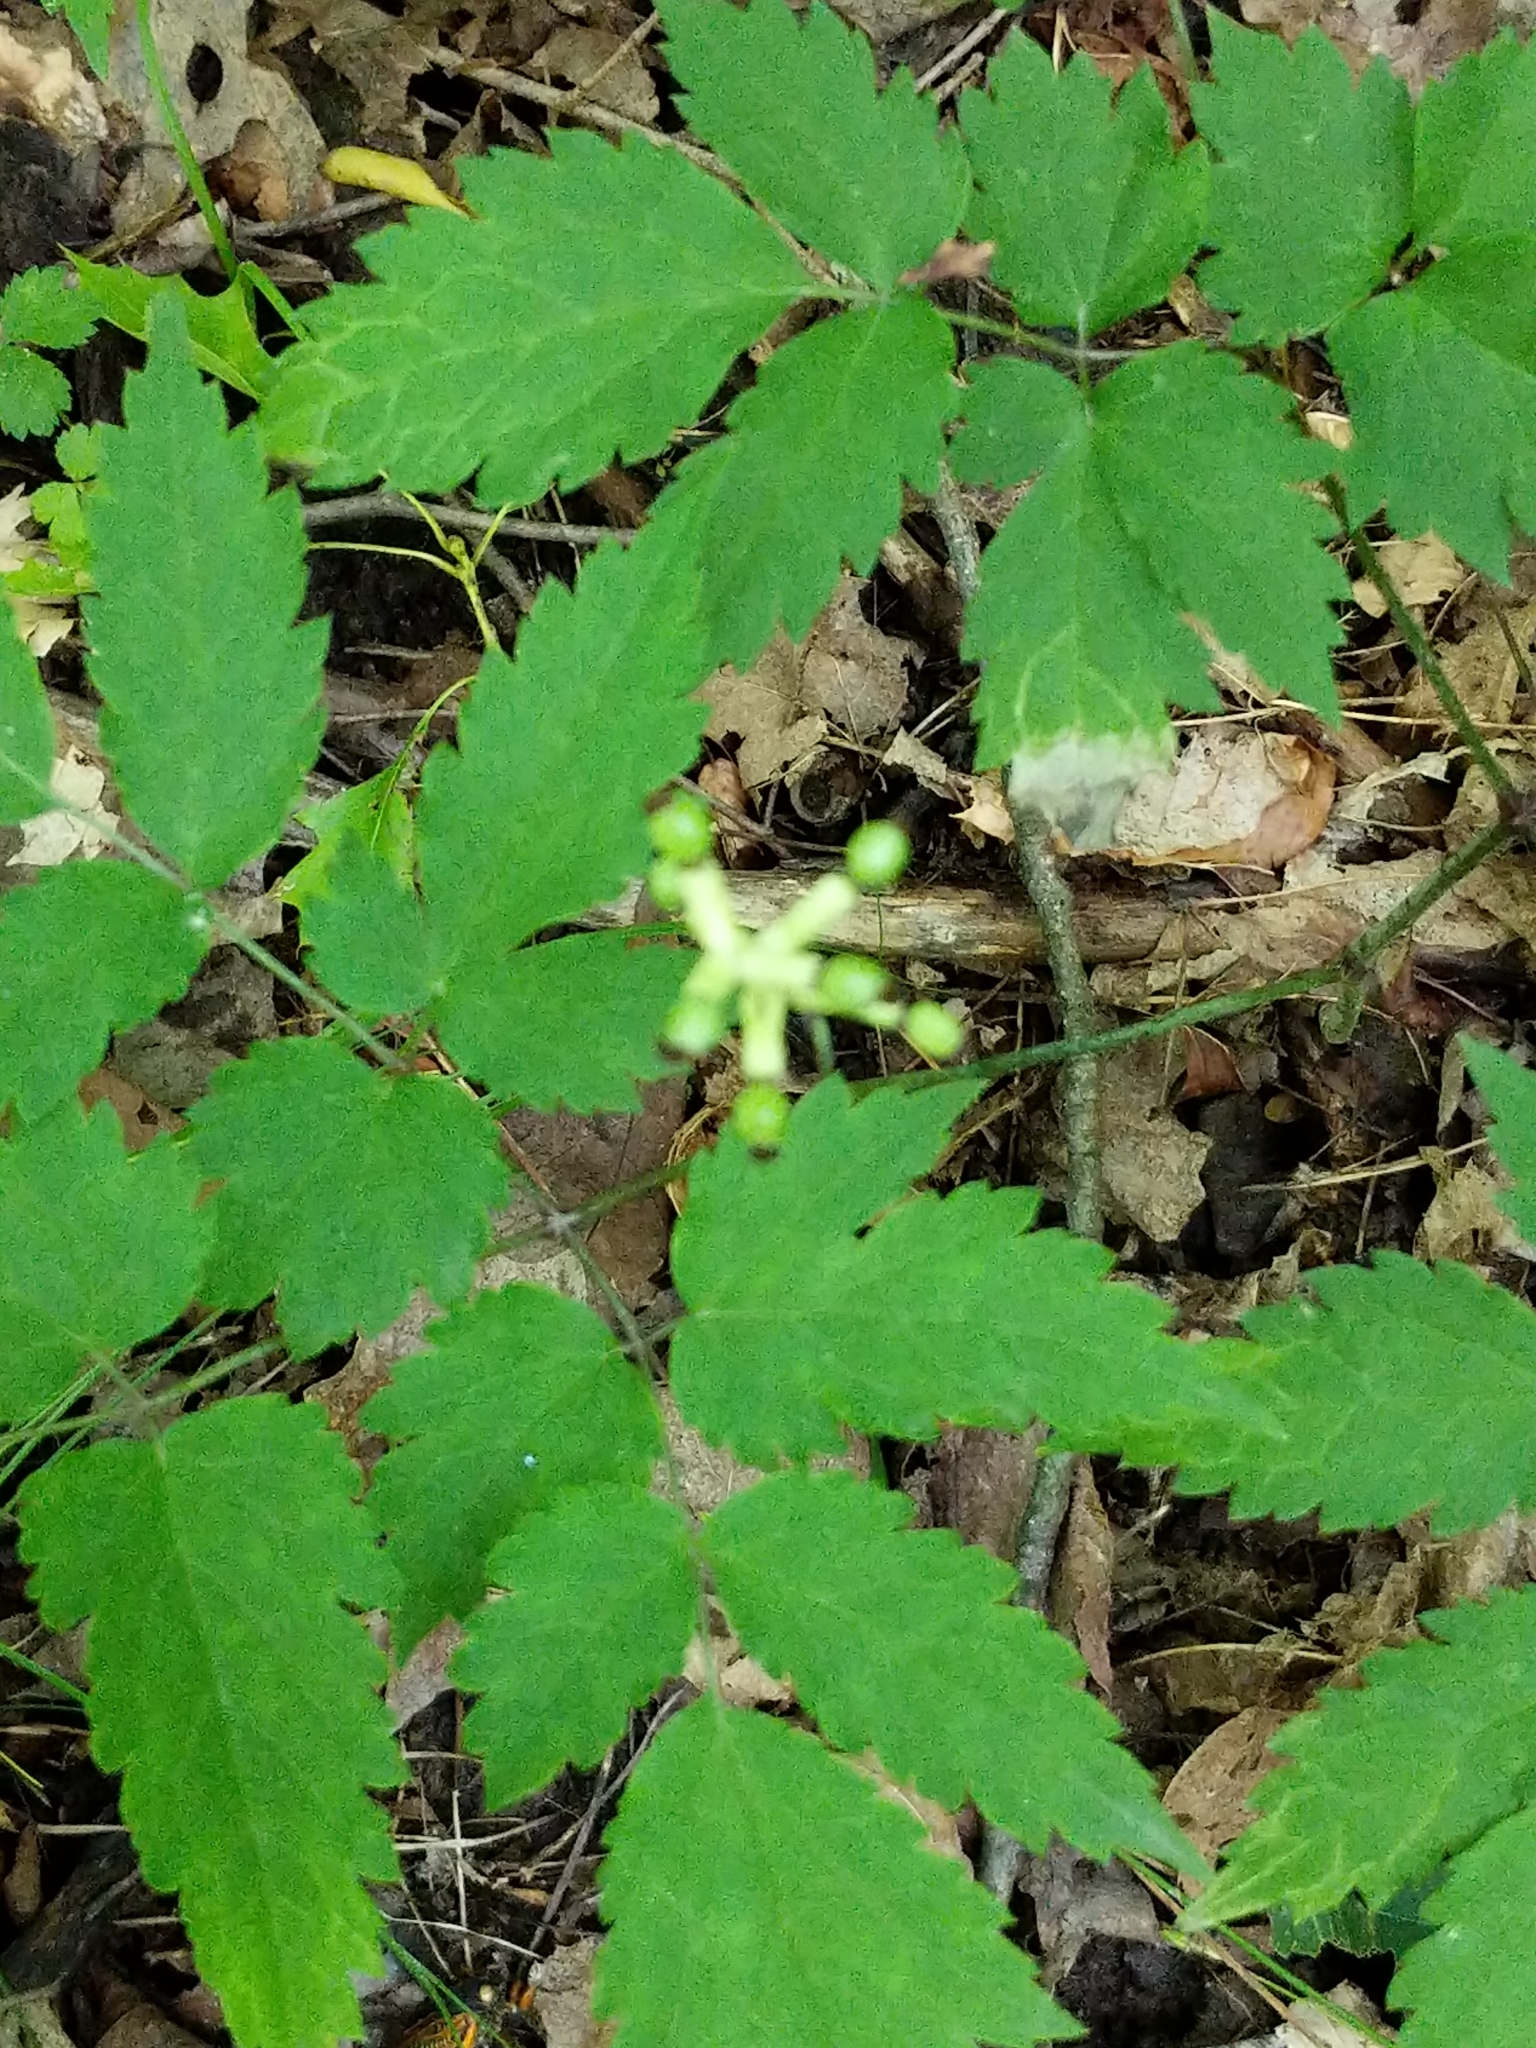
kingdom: Plantae
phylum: Tracheophyta
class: Magnoliopsida
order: Ranunculales
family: Ranunculaceae
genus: Actaea
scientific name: Actaea pachypoda
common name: Doll's-eyes
